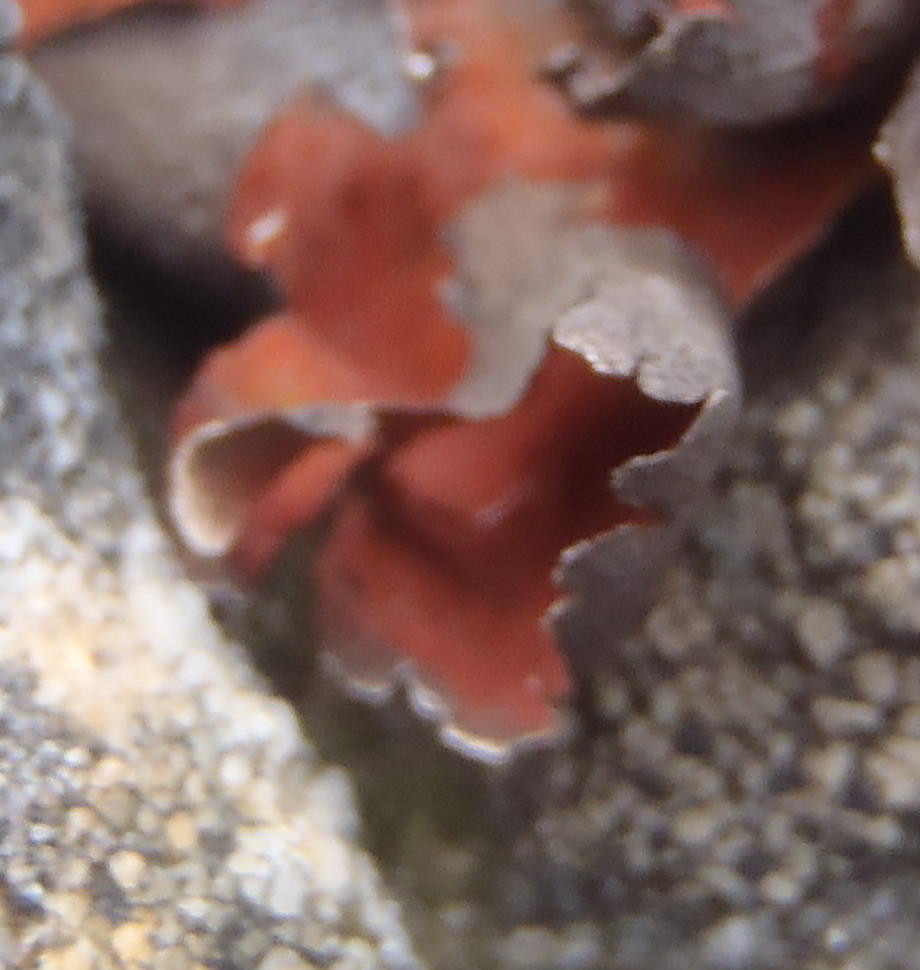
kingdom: Fungi
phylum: Ascomycota
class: Lecanoromycetes
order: Umbilicariales
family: Umbilicariaceae
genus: Lasallia
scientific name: Lasallia rubiginosa
